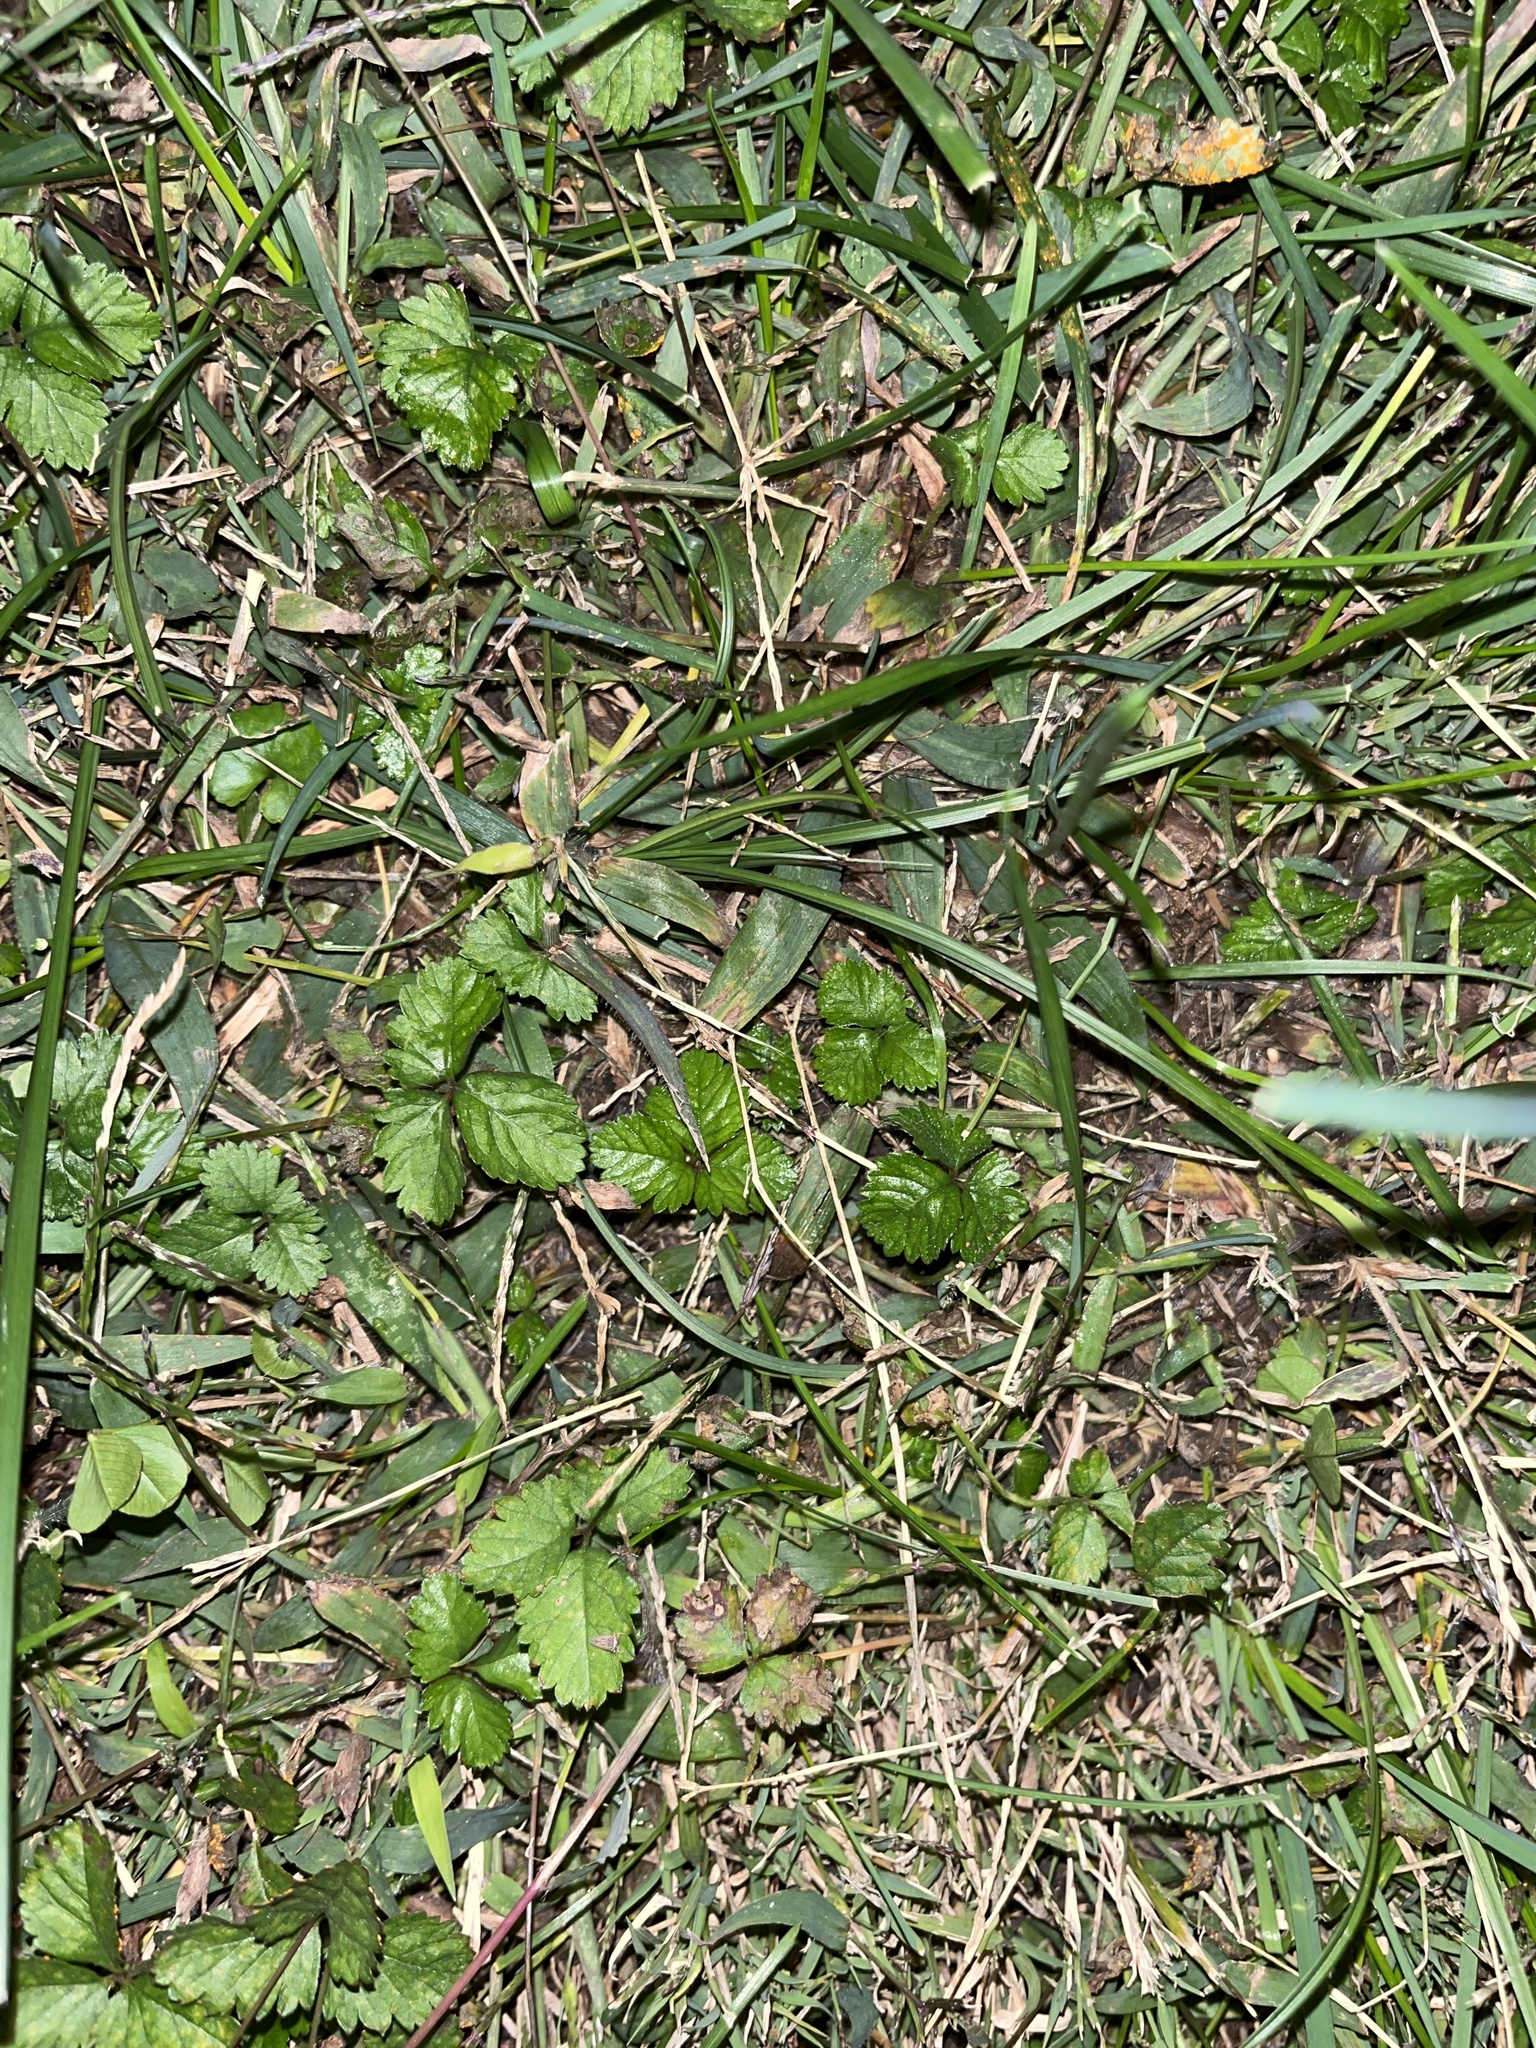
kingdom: Plantae
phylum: Tracheophyta
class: Magnoliopsida
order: Rosales
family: Rosaceae
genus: Potentilla
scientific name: Potentilla indica
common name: Yellow-flowered strawberry
